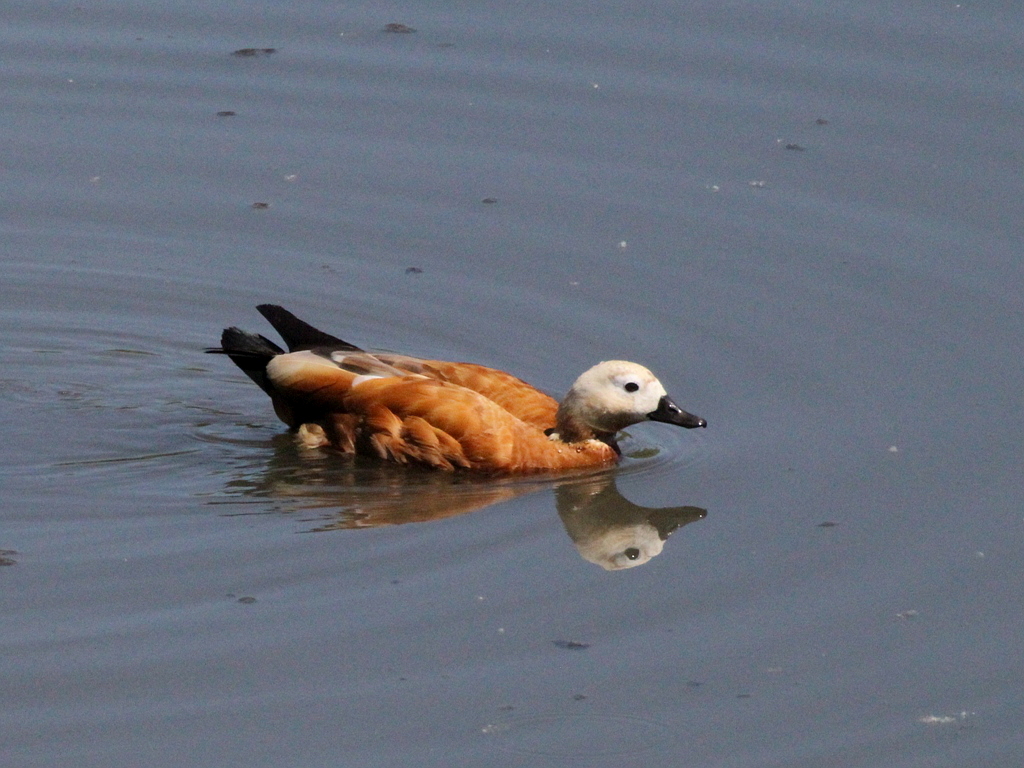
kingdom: Animalia
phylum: Chordata
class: Aves
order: Anseriformes
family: Anatidae
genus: Tadorna
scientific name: Tadorna ferruginea
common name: Ruddy shelduck
